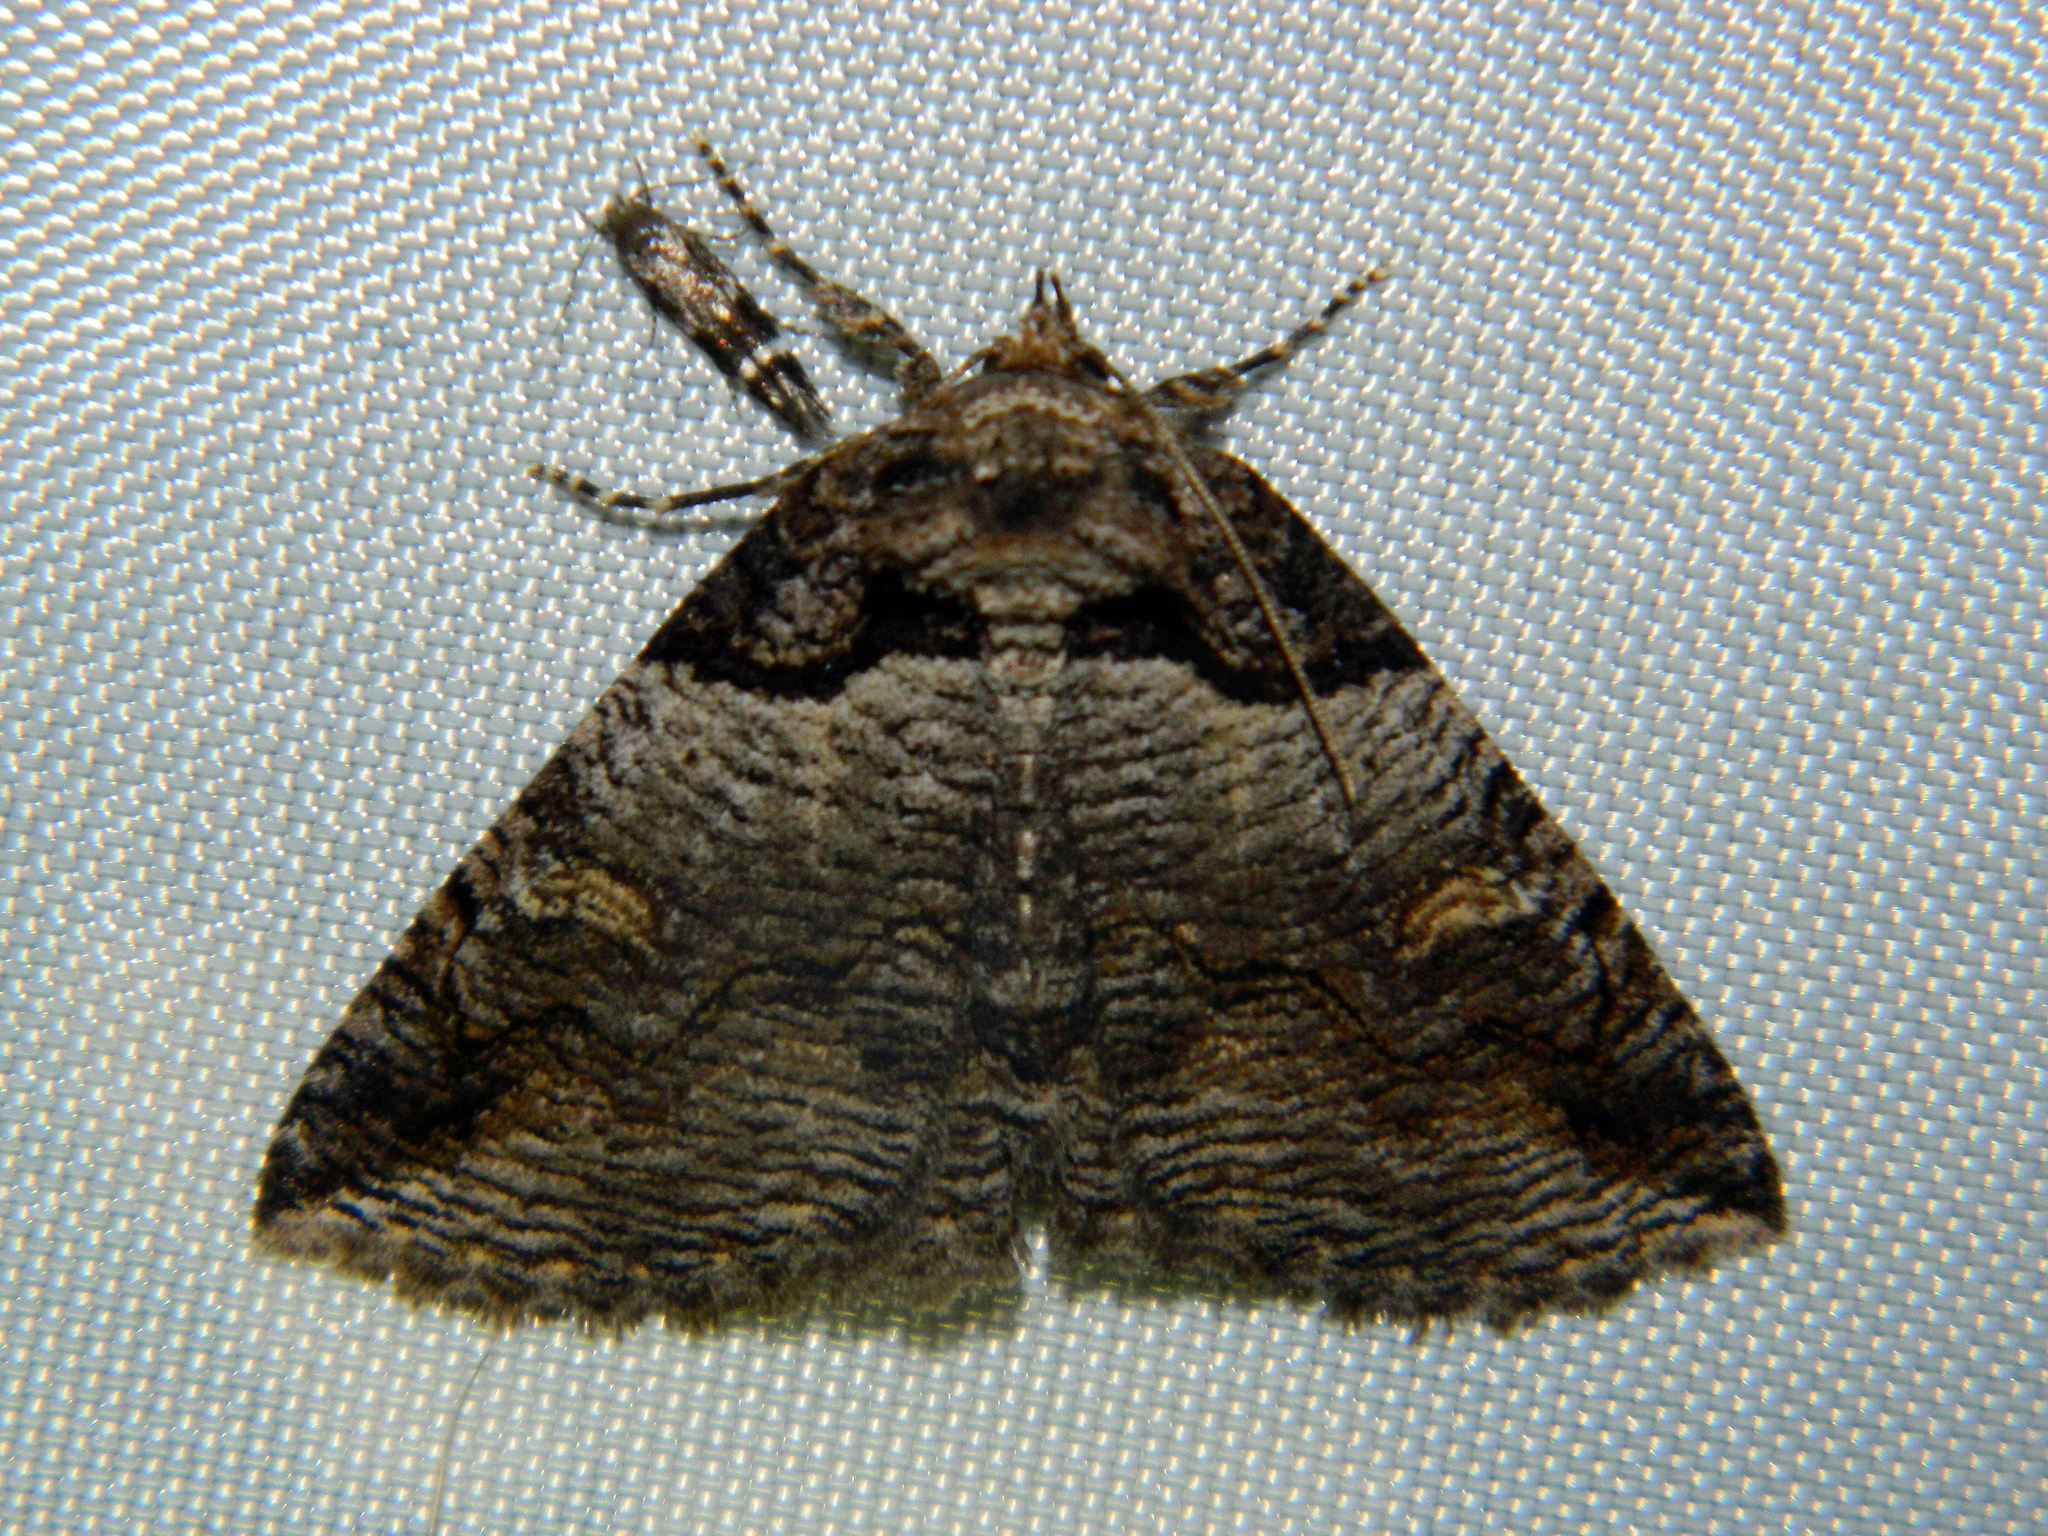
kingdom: Animalia
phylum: Arthropoda
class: Insecta
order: Lepidoptera
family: Erebidae
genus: Zale
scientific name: Zale intenta
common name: Intent zale moth
